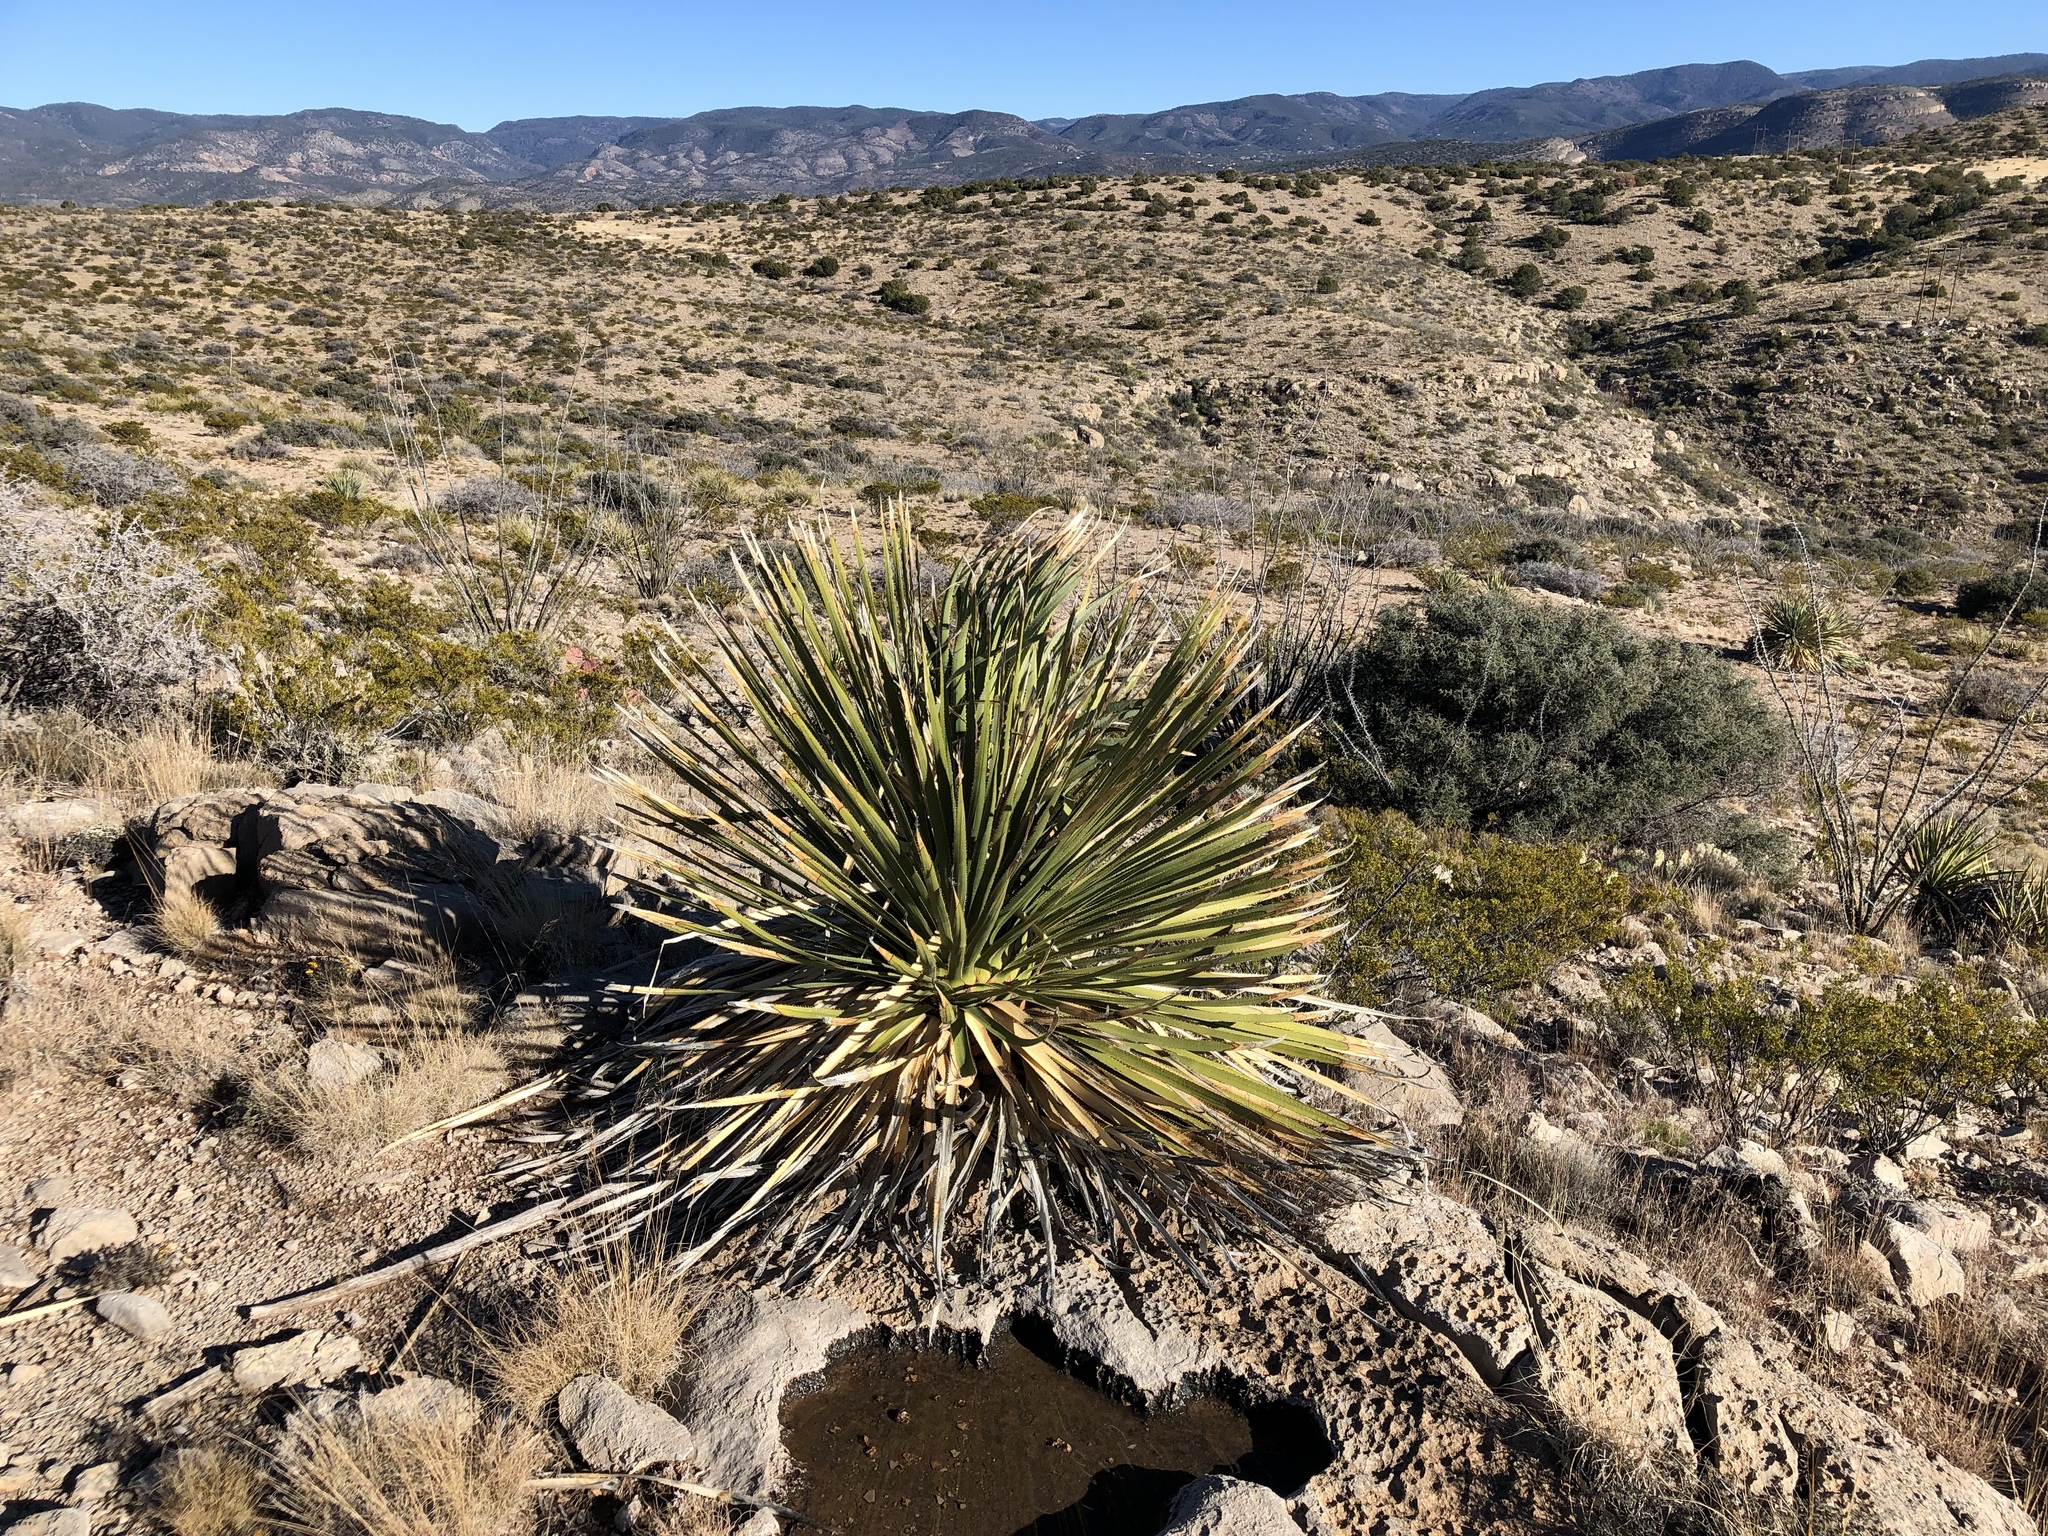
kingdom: Plantae
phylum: Tracheophyta
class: Liliopsida
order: Asparagales
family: Asparagaceae
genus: Dasylirion
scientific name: Dasylirion wheeleri
